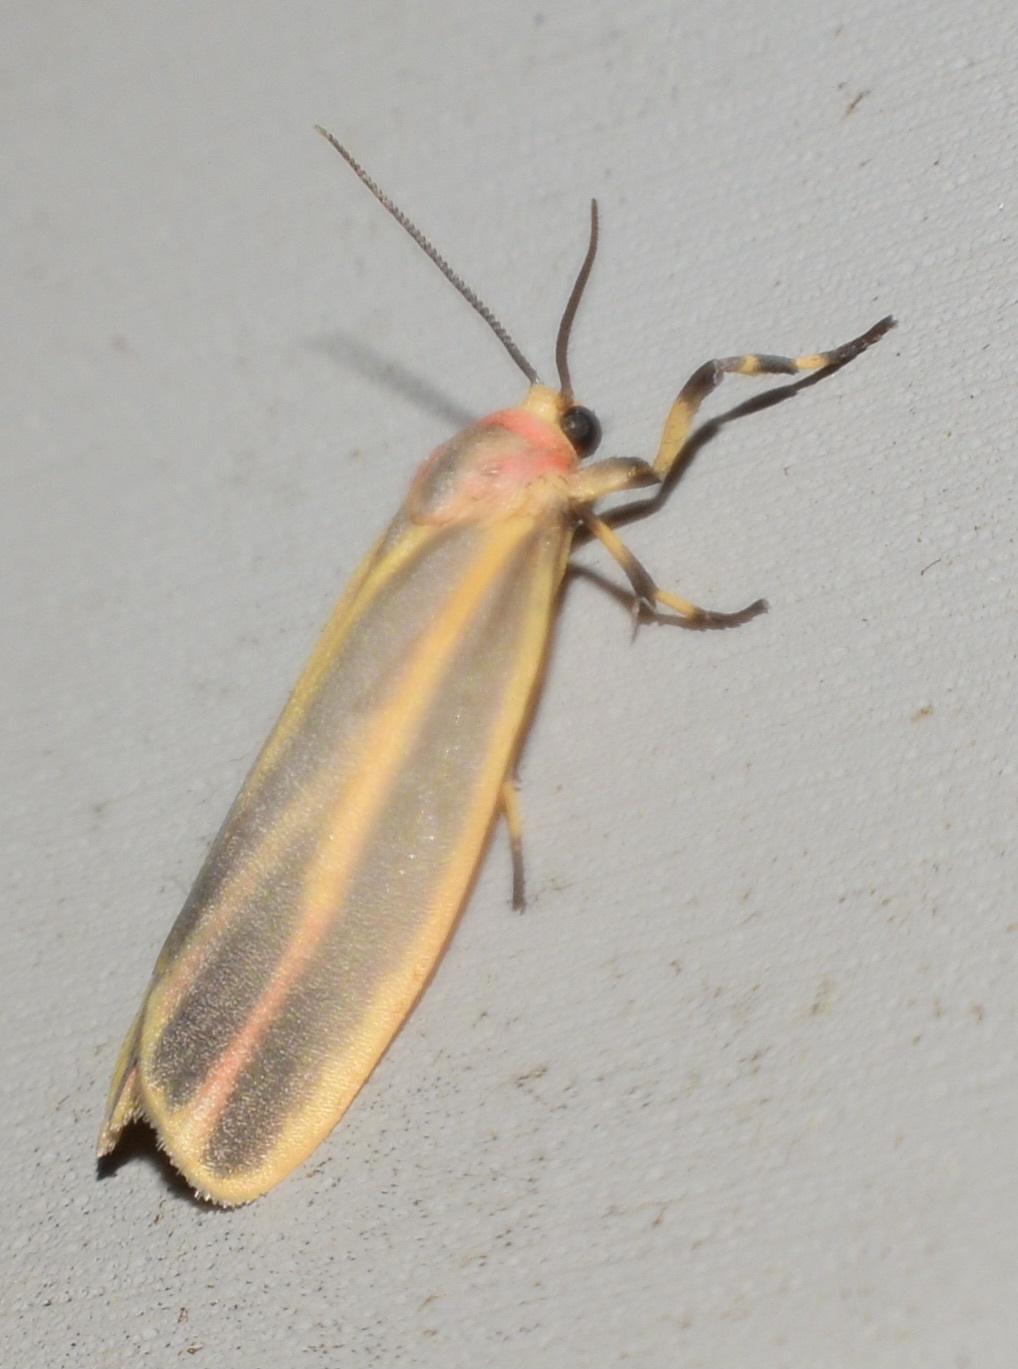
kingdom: Animalia
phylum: Arthropoda
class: Insecta
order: Lepidoptera
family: Erebidae
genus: Hypoprepia
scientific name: Hypoprepia fucosa
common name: Painted lichen moth
